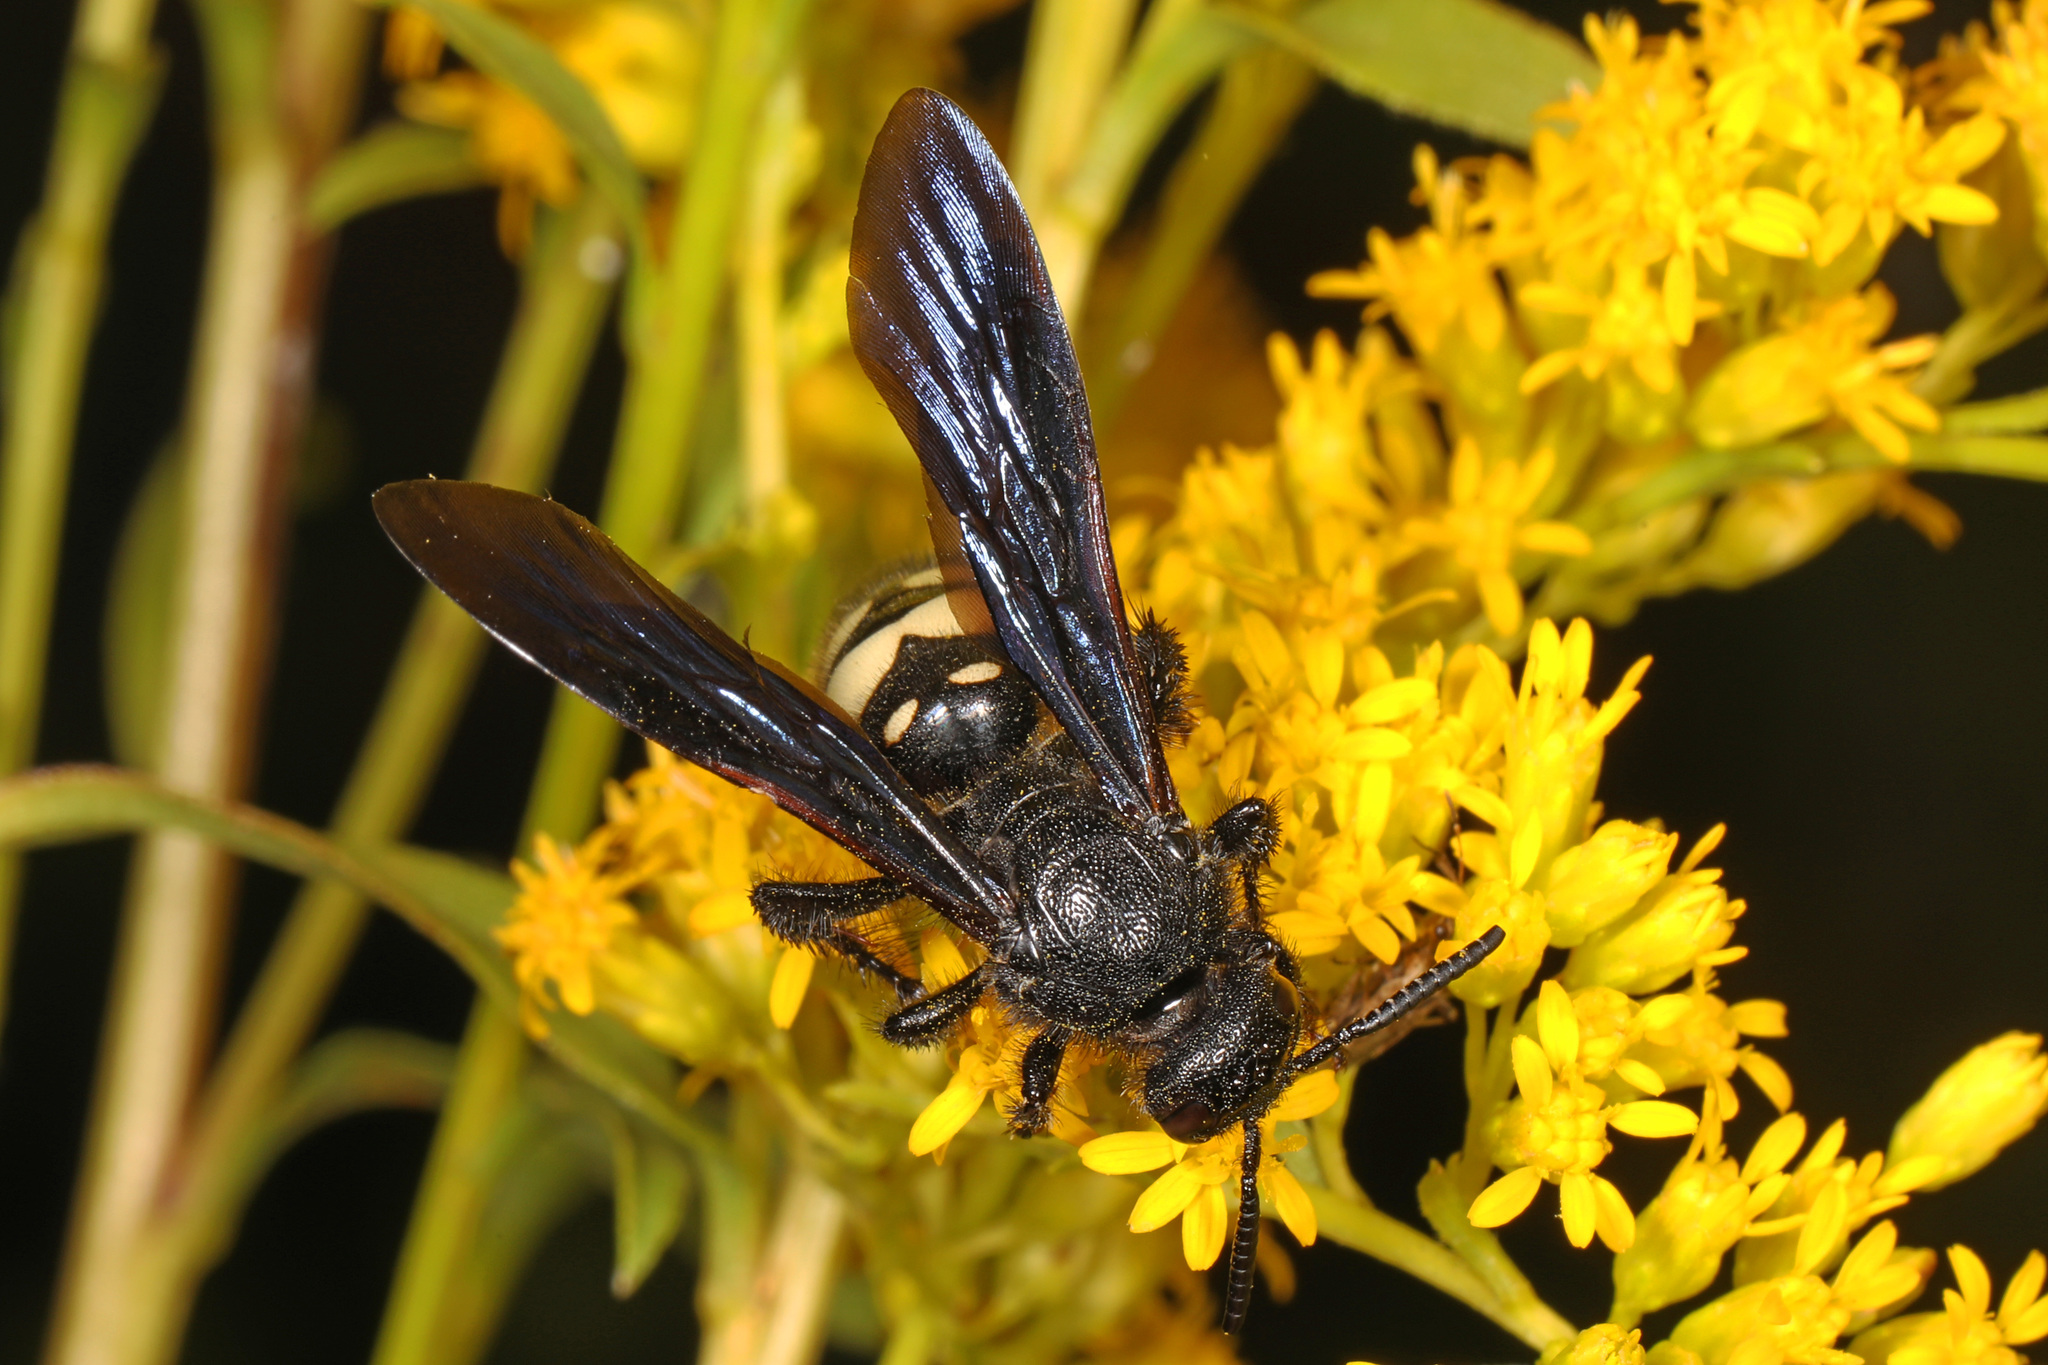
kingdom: Animalia
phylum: Arthropoda
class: Insecta
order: Hymenoptera
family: Scoliidae
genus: Scolia
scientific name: Scolia bicincta
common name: Double-banded scoliid wasp
